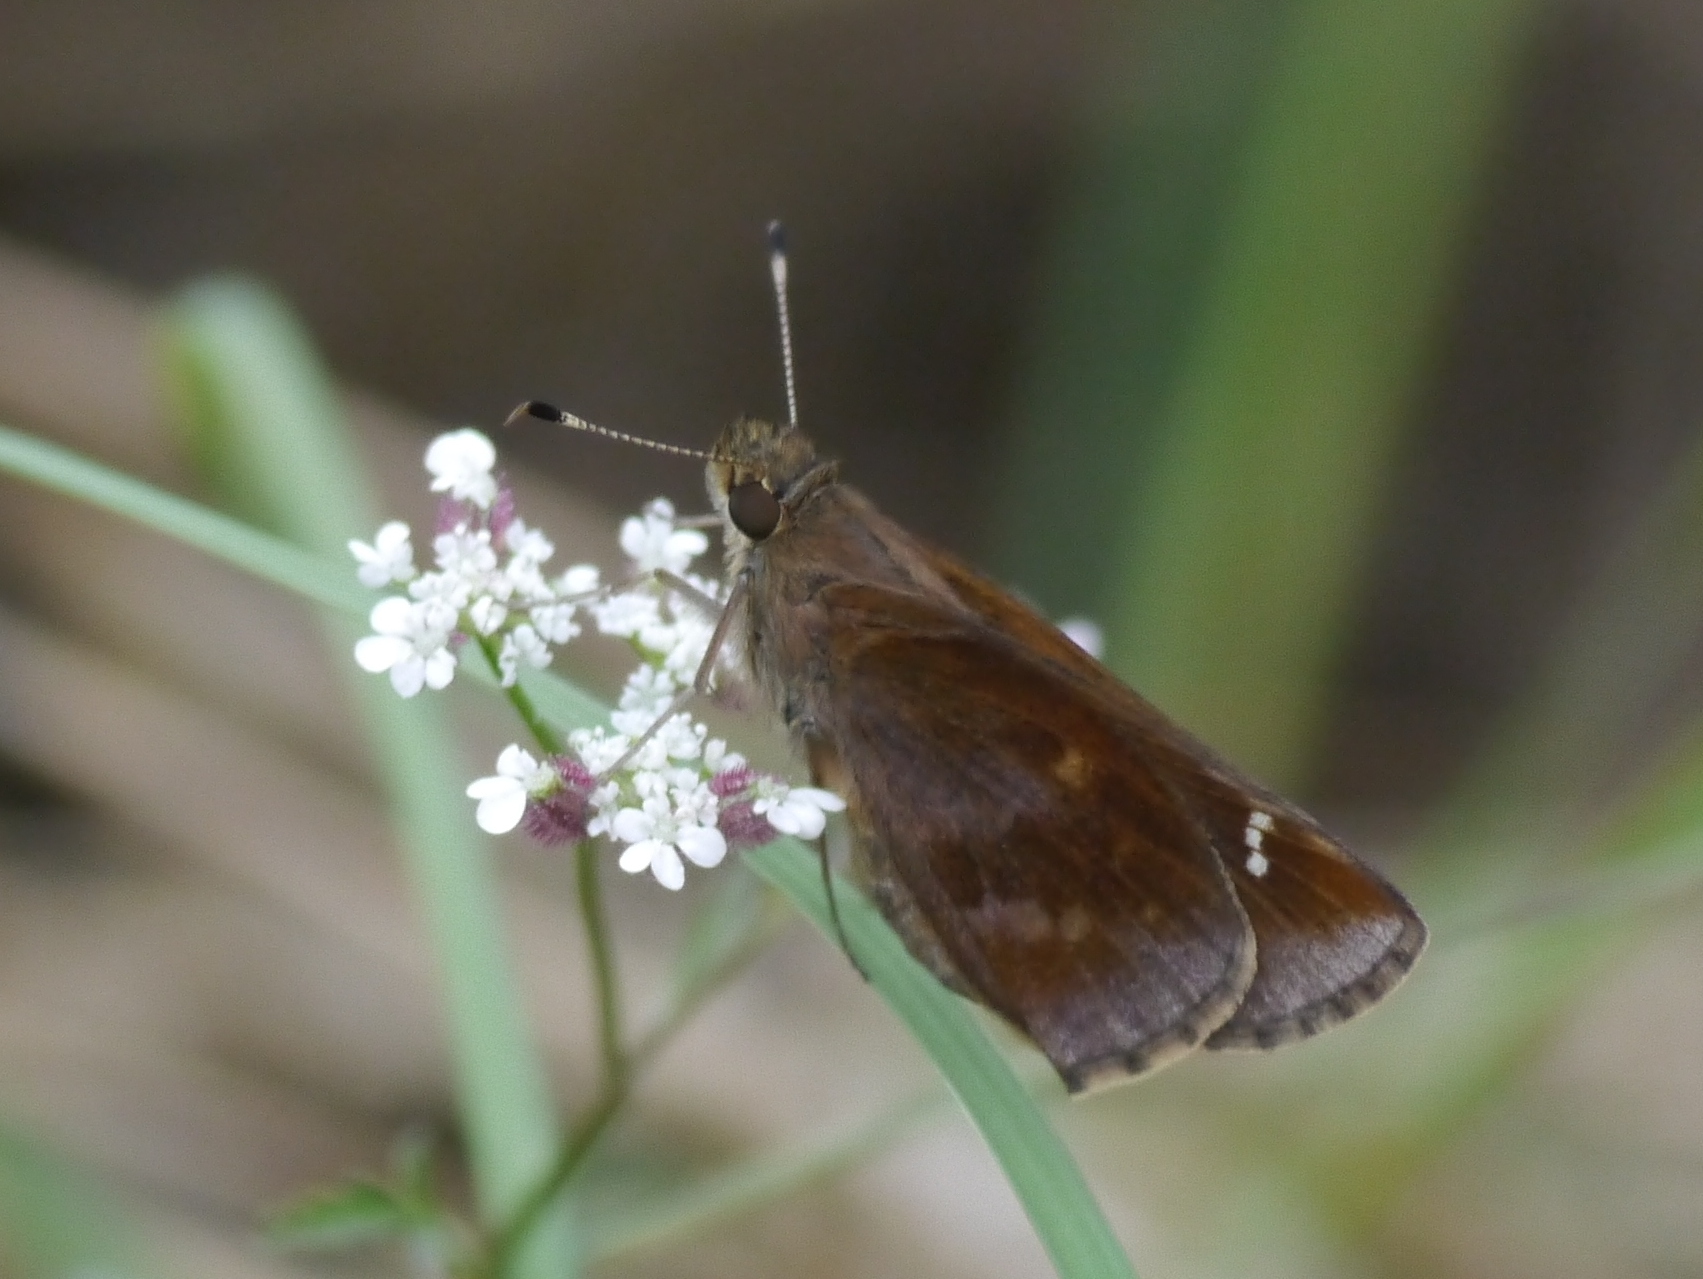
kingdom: Animalia
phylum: Arthropoda
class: Insecta
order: Lepidoptera
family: Hesperiidae
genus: Lerema
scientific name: Lerema accius
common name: Clouded skipper
